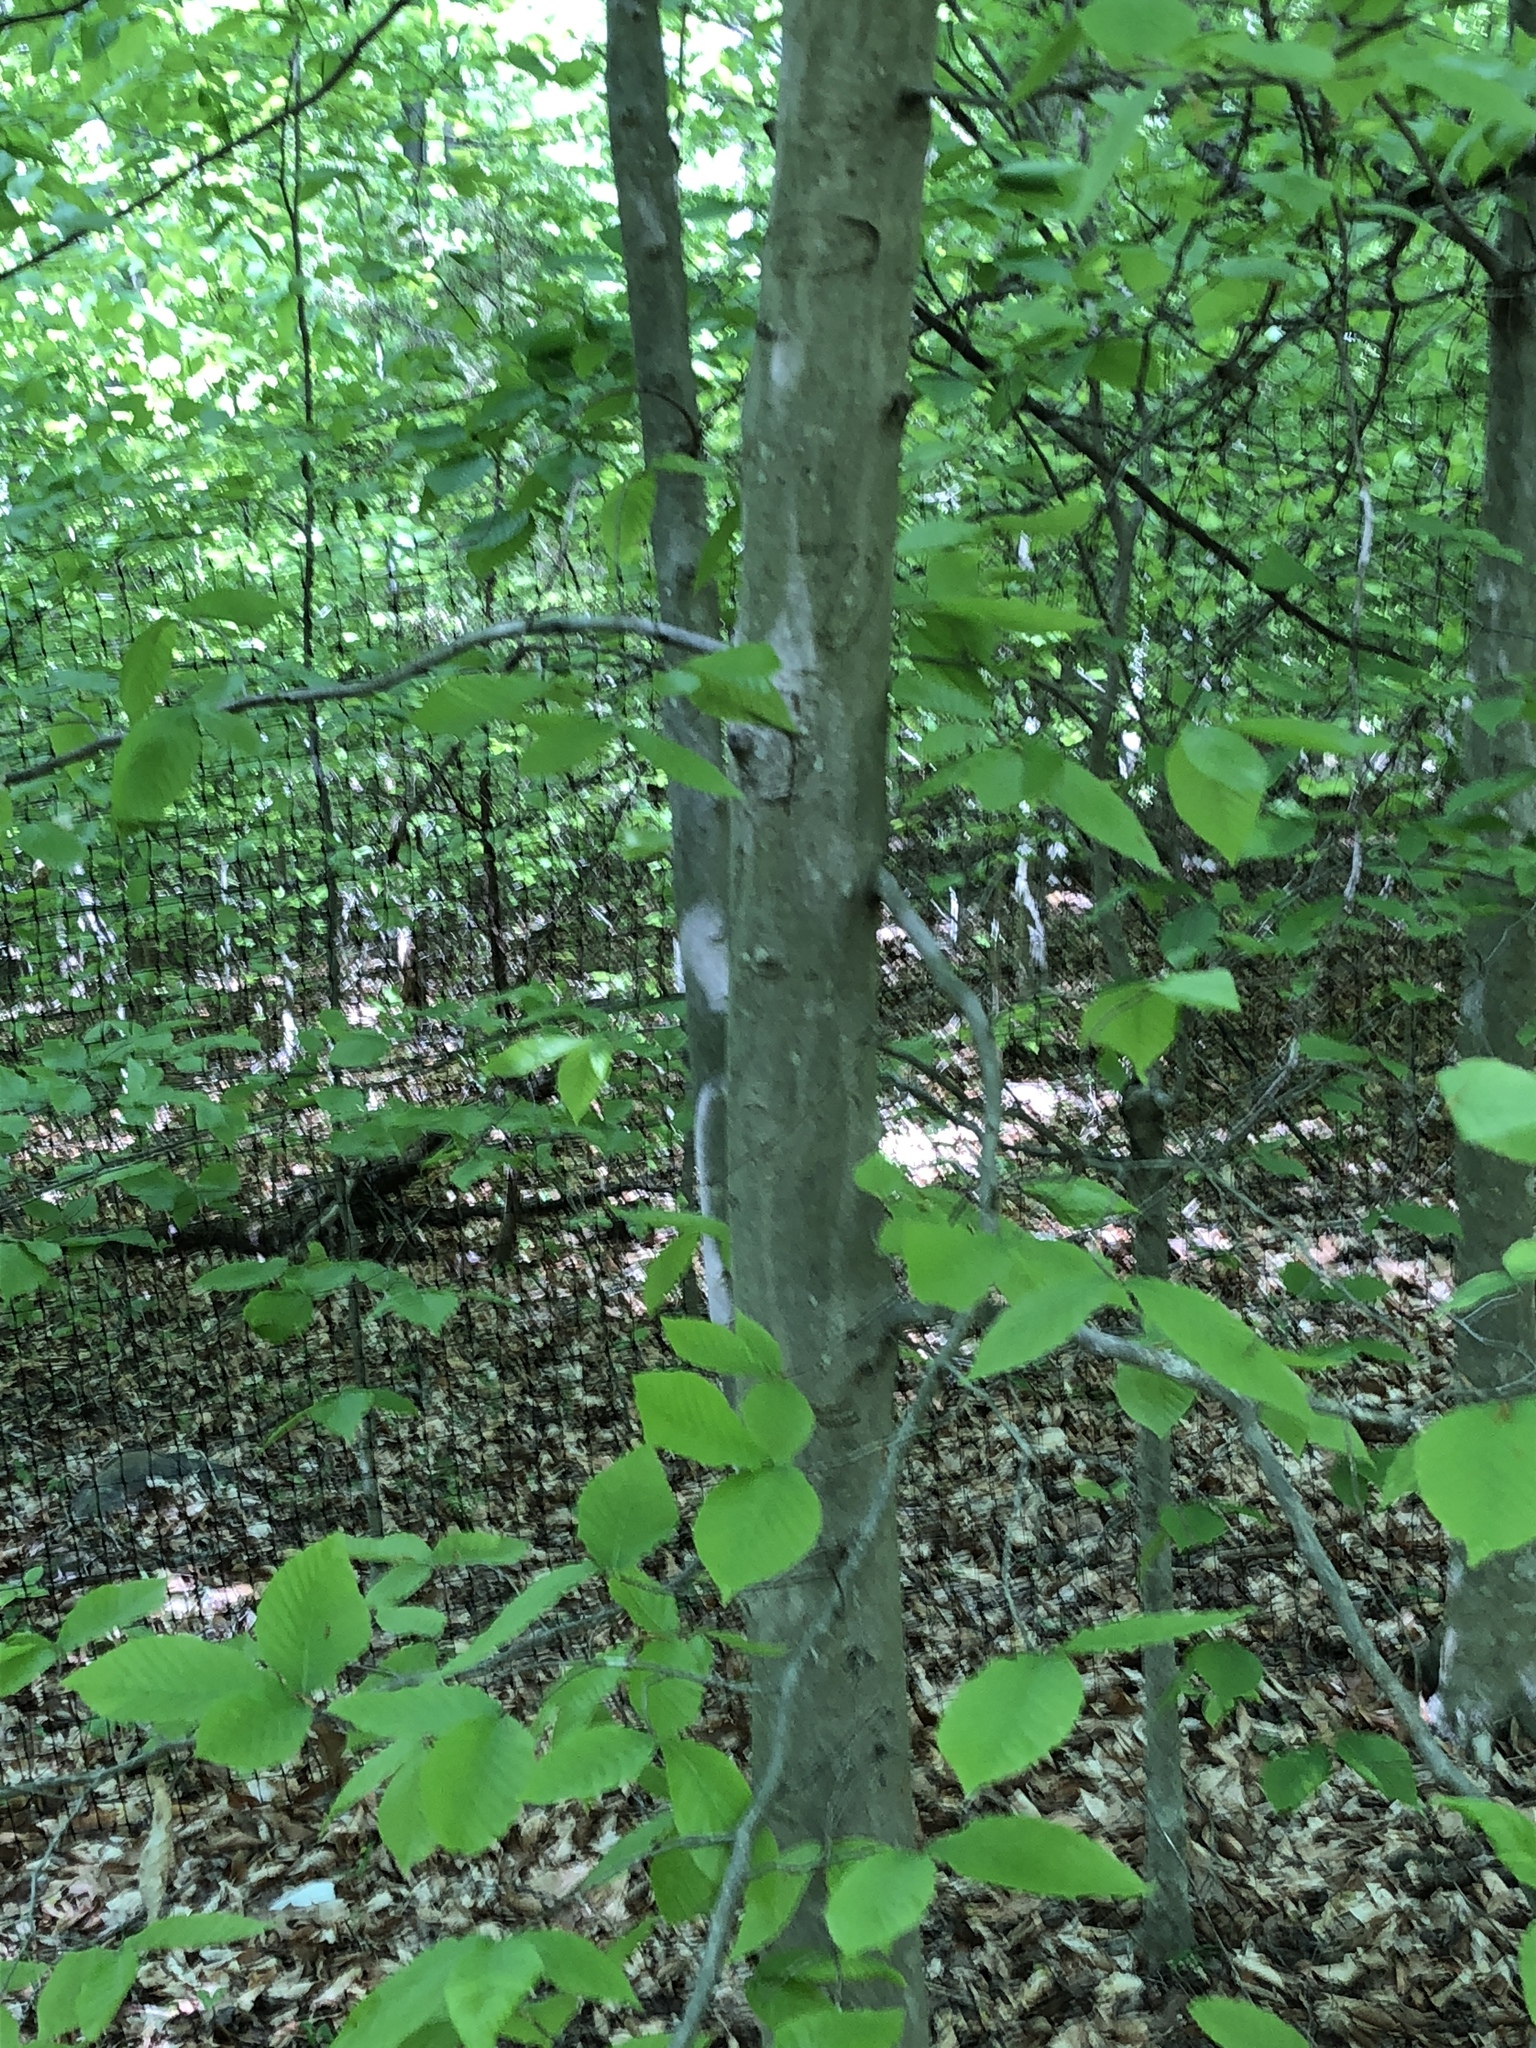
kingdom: Plantae
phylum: Tracheophyta
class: Magnoliopsida
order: Fagales
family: Fagaceae
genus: Fagus
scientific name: Fagus grandifolia
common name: American beech
